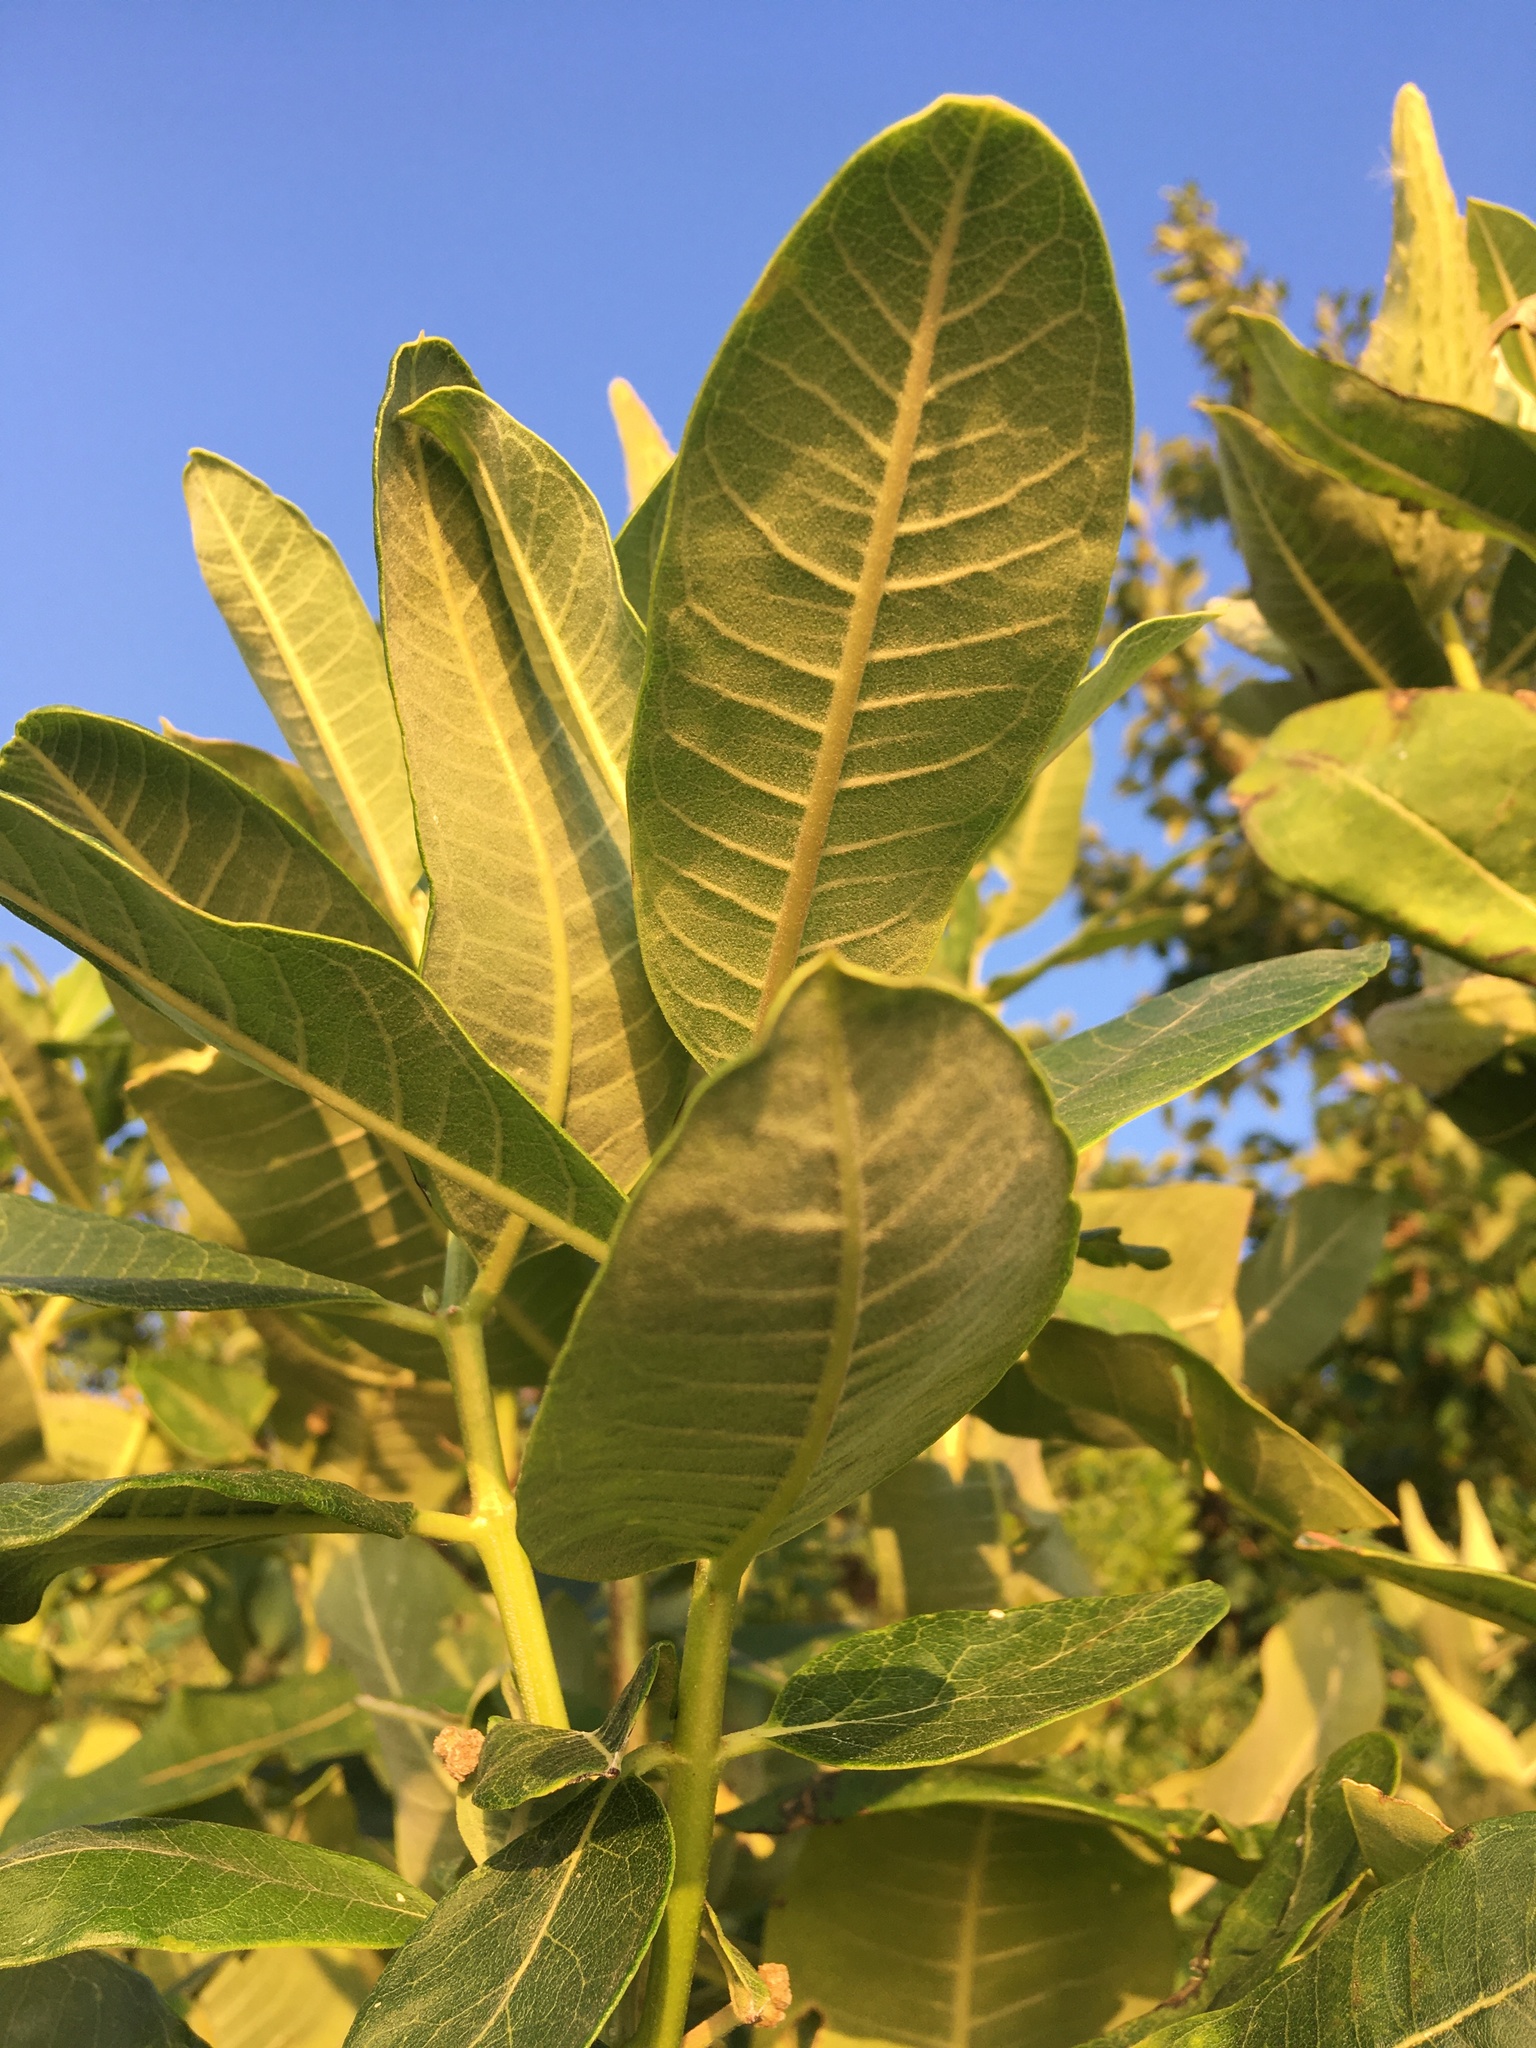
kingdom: Plantae
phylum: Tracheophyta
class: Magnoliopsida
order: Gentianales
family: Apocynaceae
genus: Asclepias
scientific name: Asclepias syriaca
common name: Common milkweed
